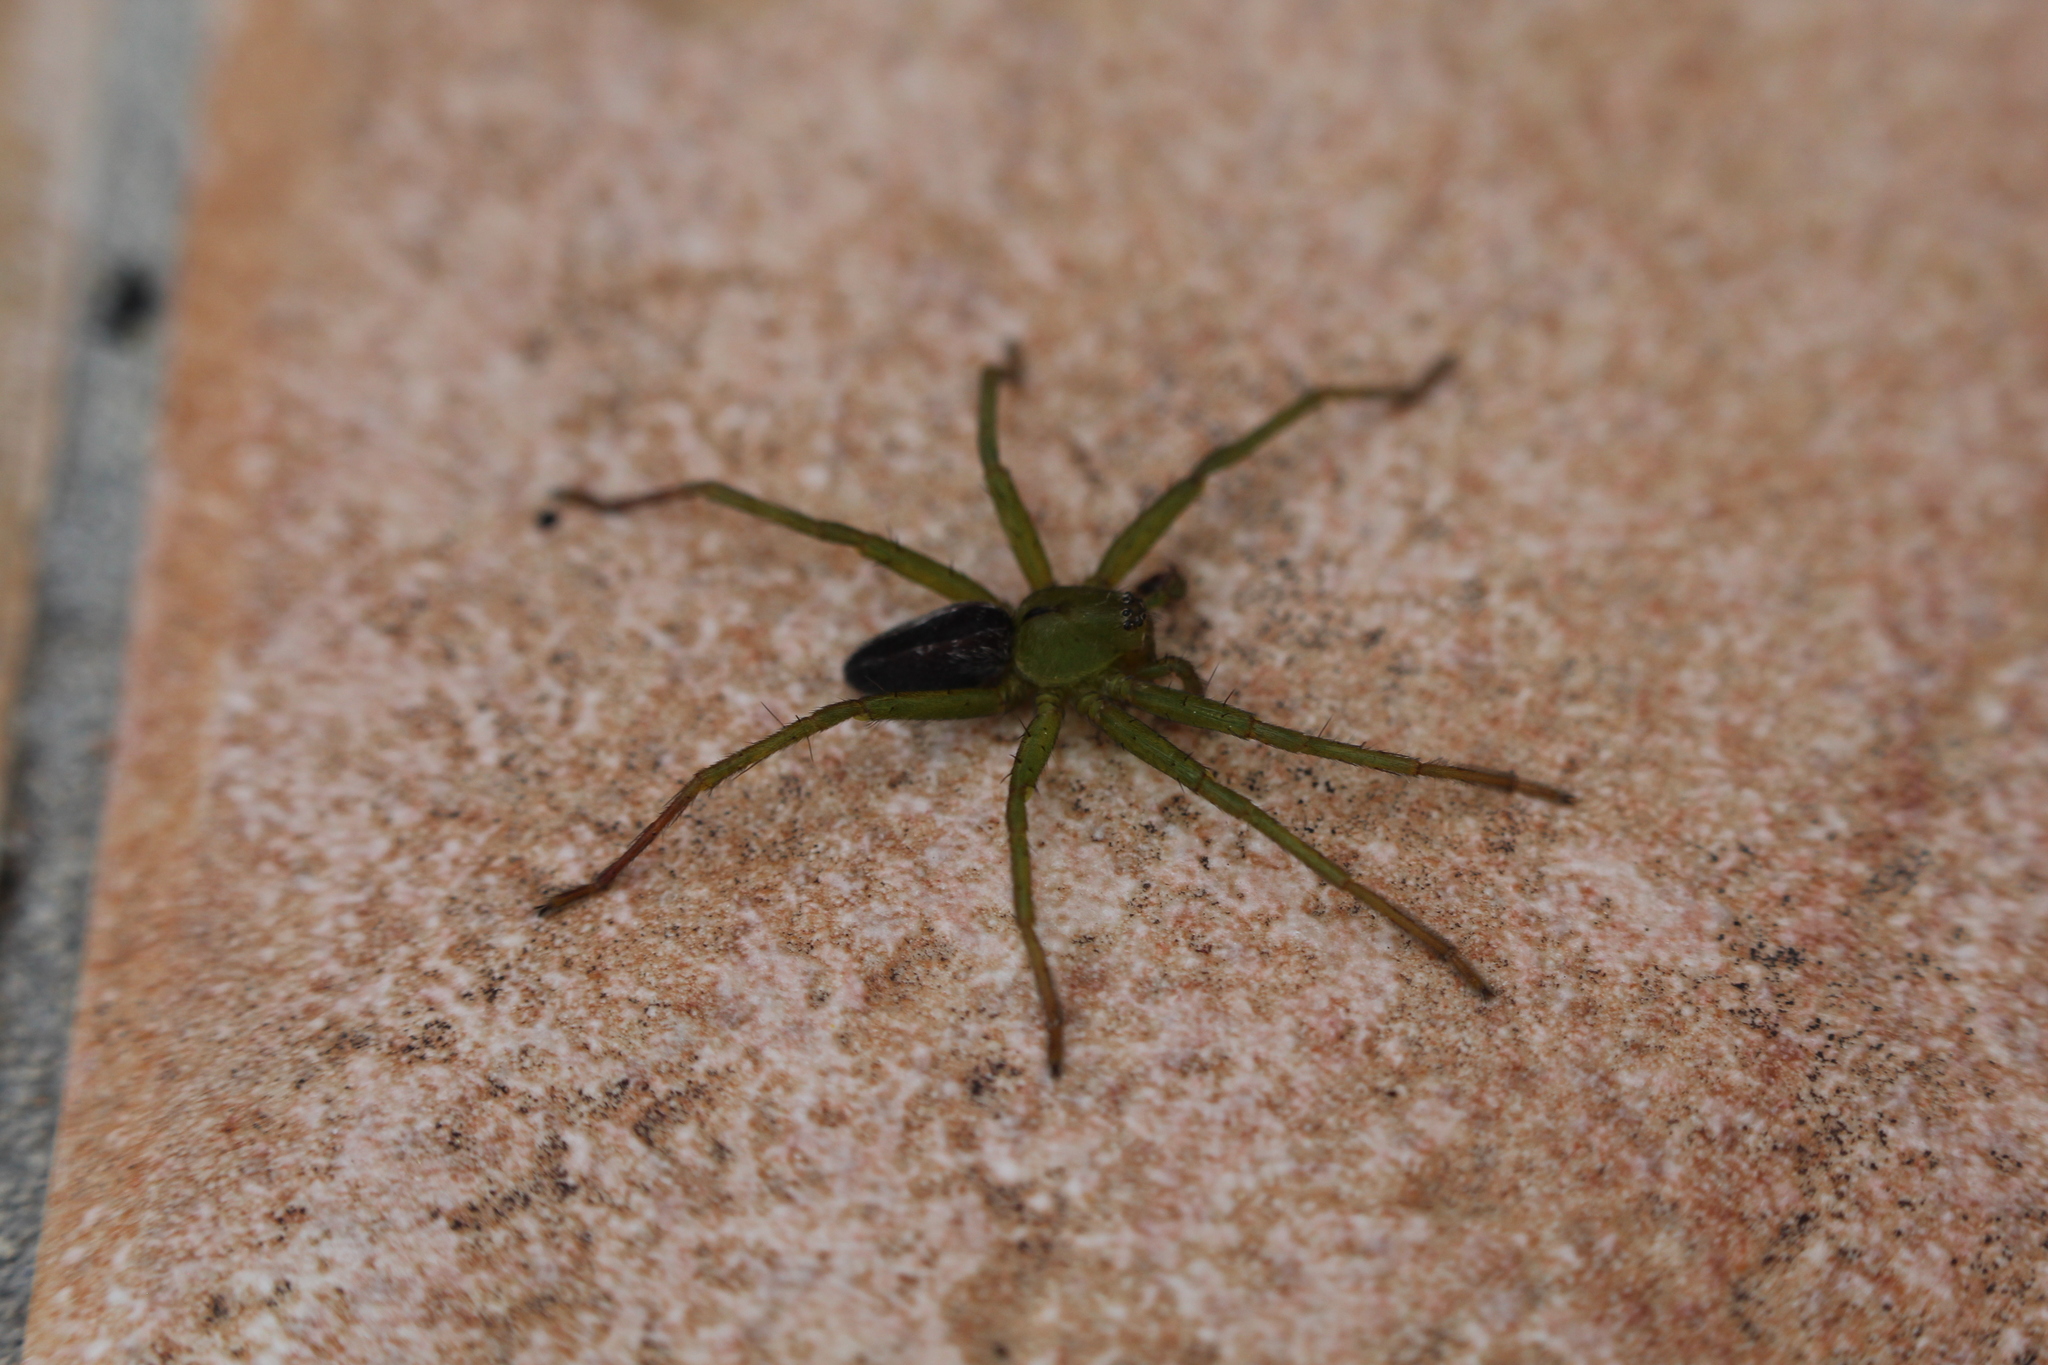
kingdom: Animalia
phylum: Arthropoda
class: Arachnida
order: Araneae
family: Sparassidae
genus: Micrommata
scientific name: Micrommata ligurina
